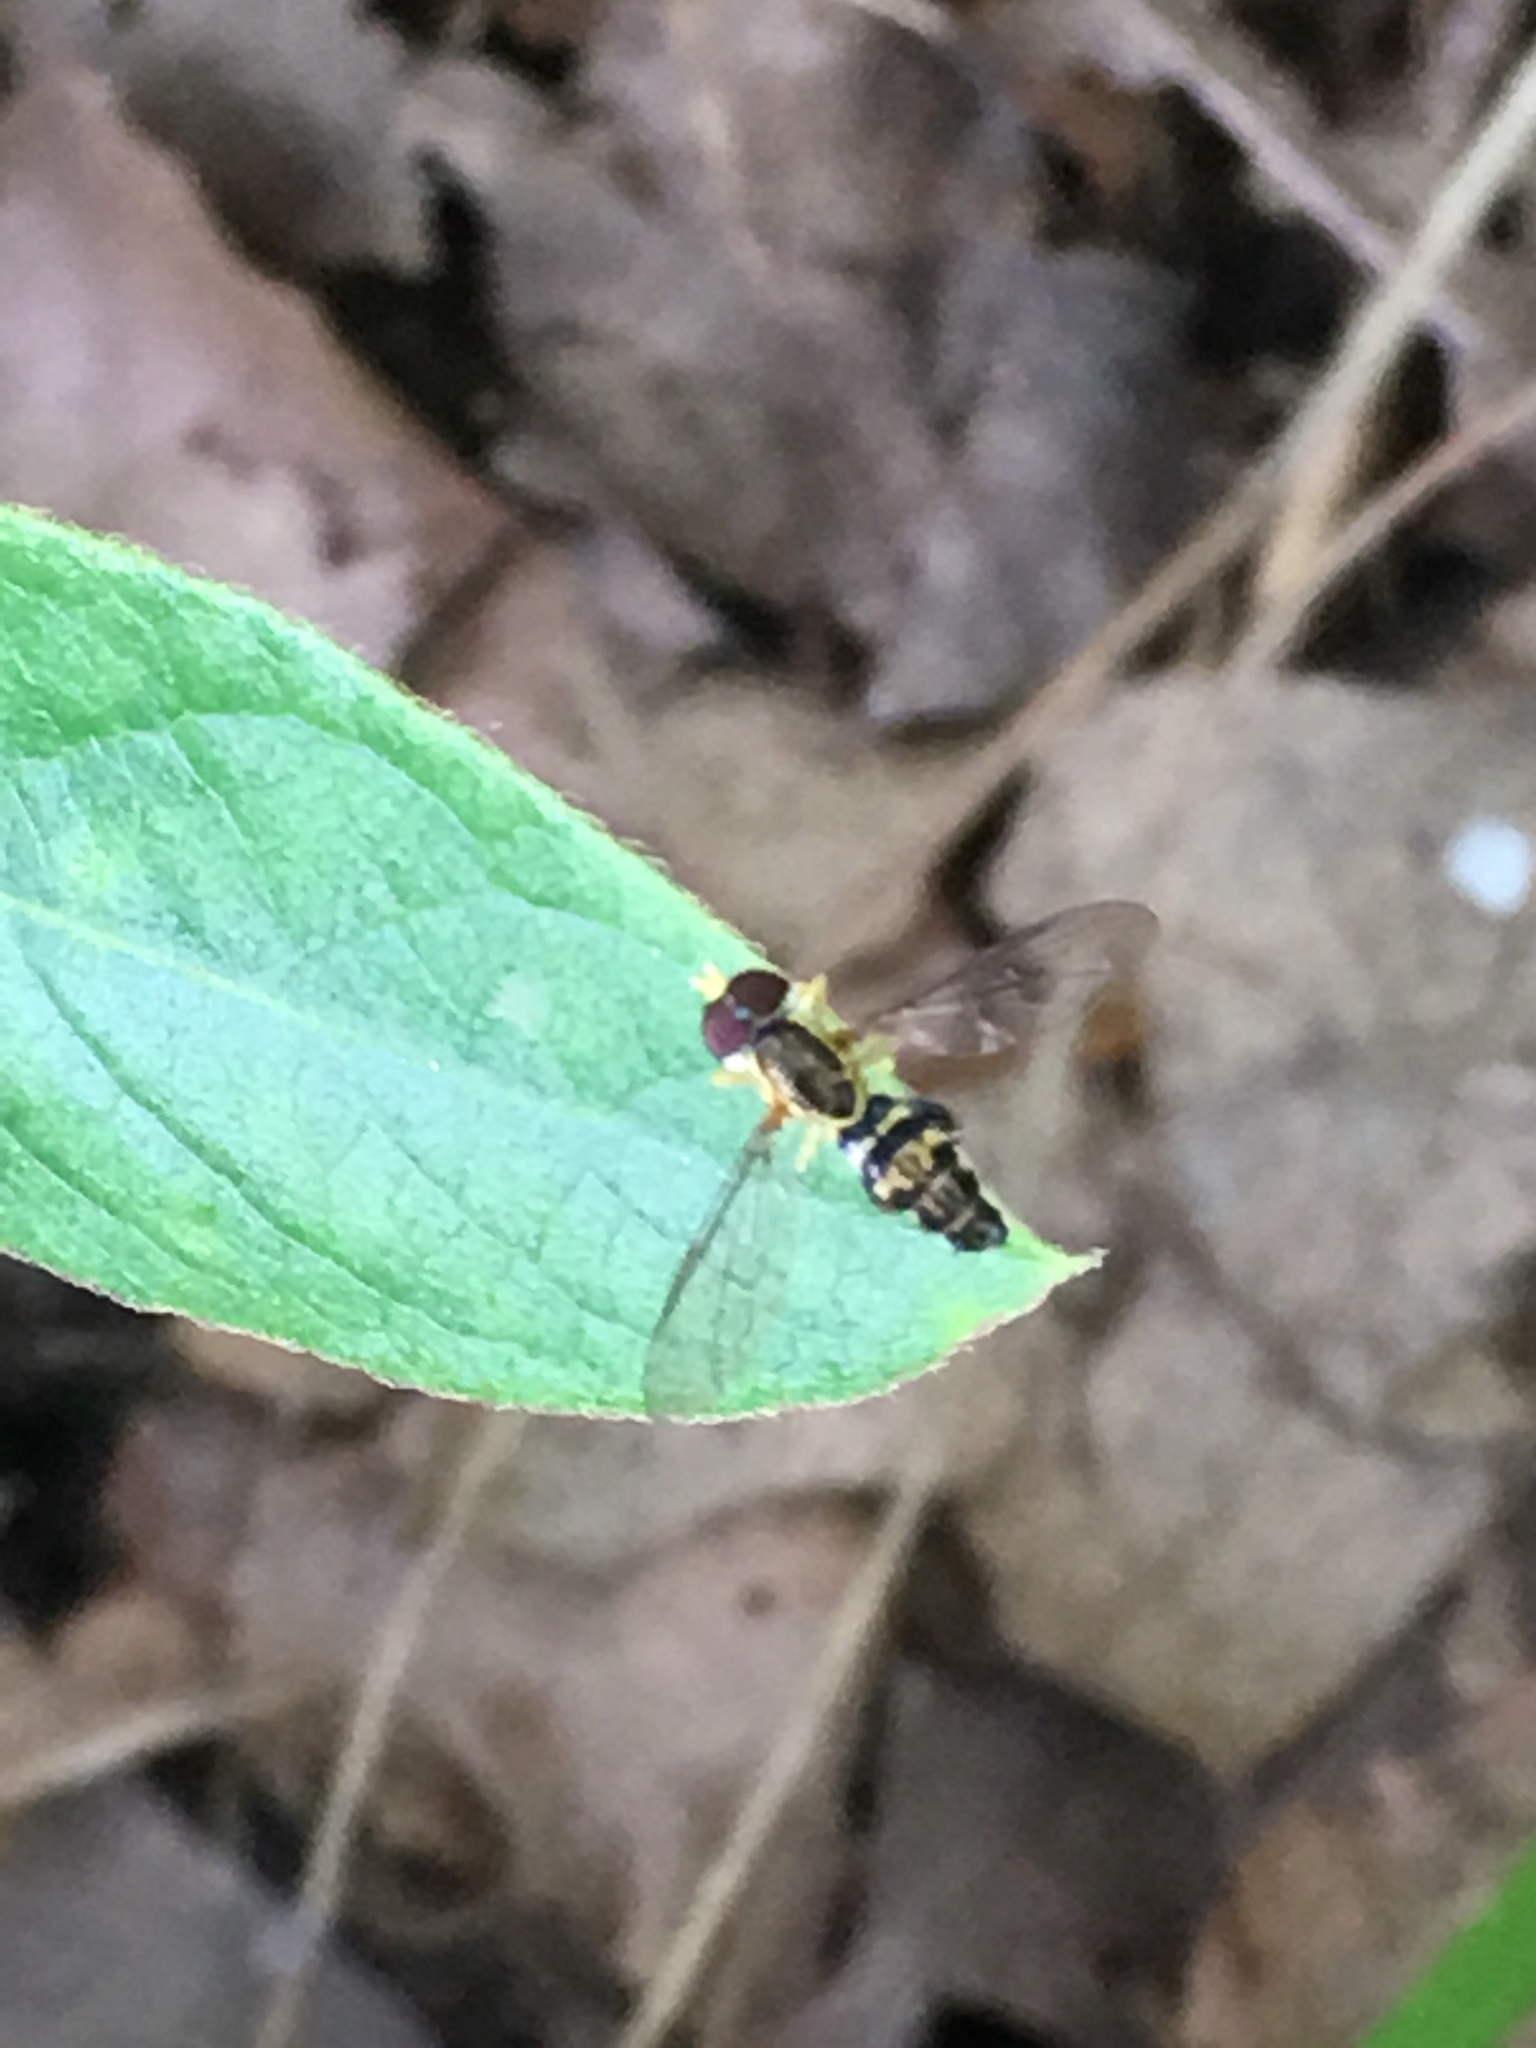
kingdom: Animalia
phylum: Arthropoda
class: Insecta
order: Diptera
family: Syrphidae
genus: Toxomerus
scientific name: Toxomerus geminatus
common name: Eastern calligrapher
